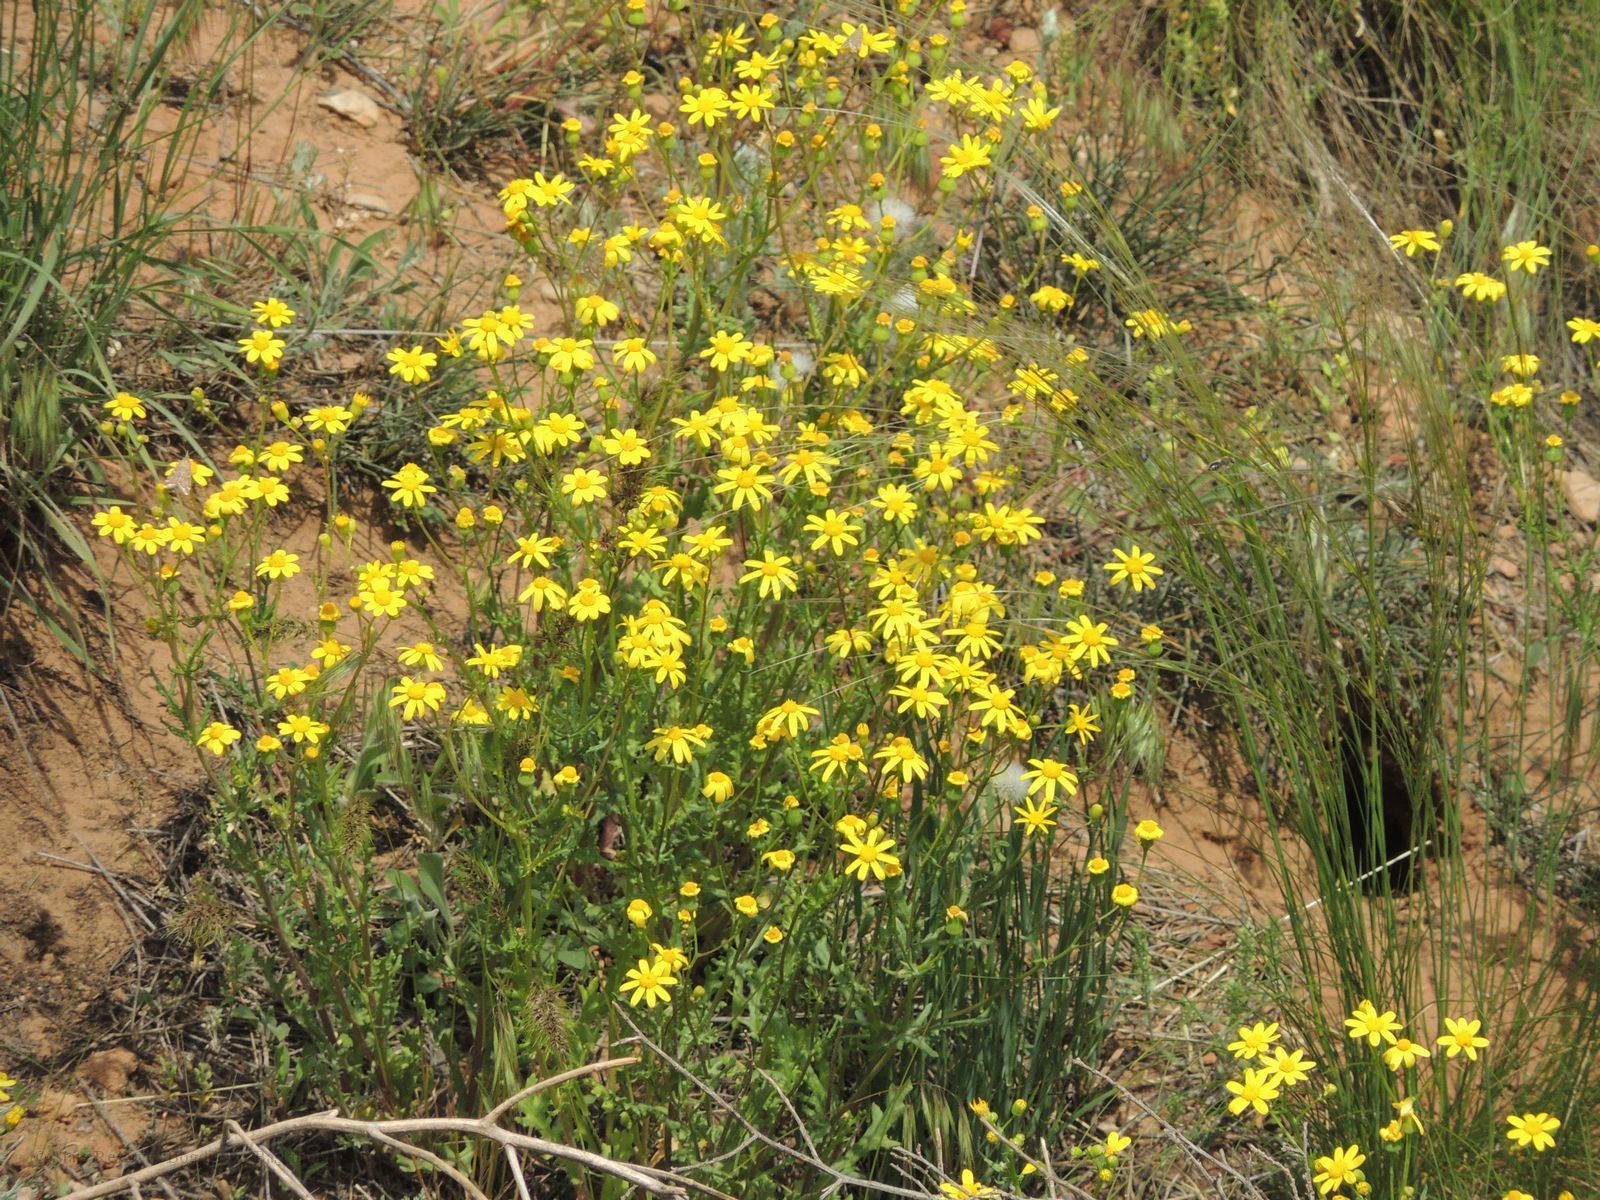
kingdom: Plantae
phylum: Tracheophyta
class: Magnoliopsida
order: Asterales
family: Asteraceae
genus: Senecio
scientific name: Senecio vernalis
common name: Eastern groundsel
